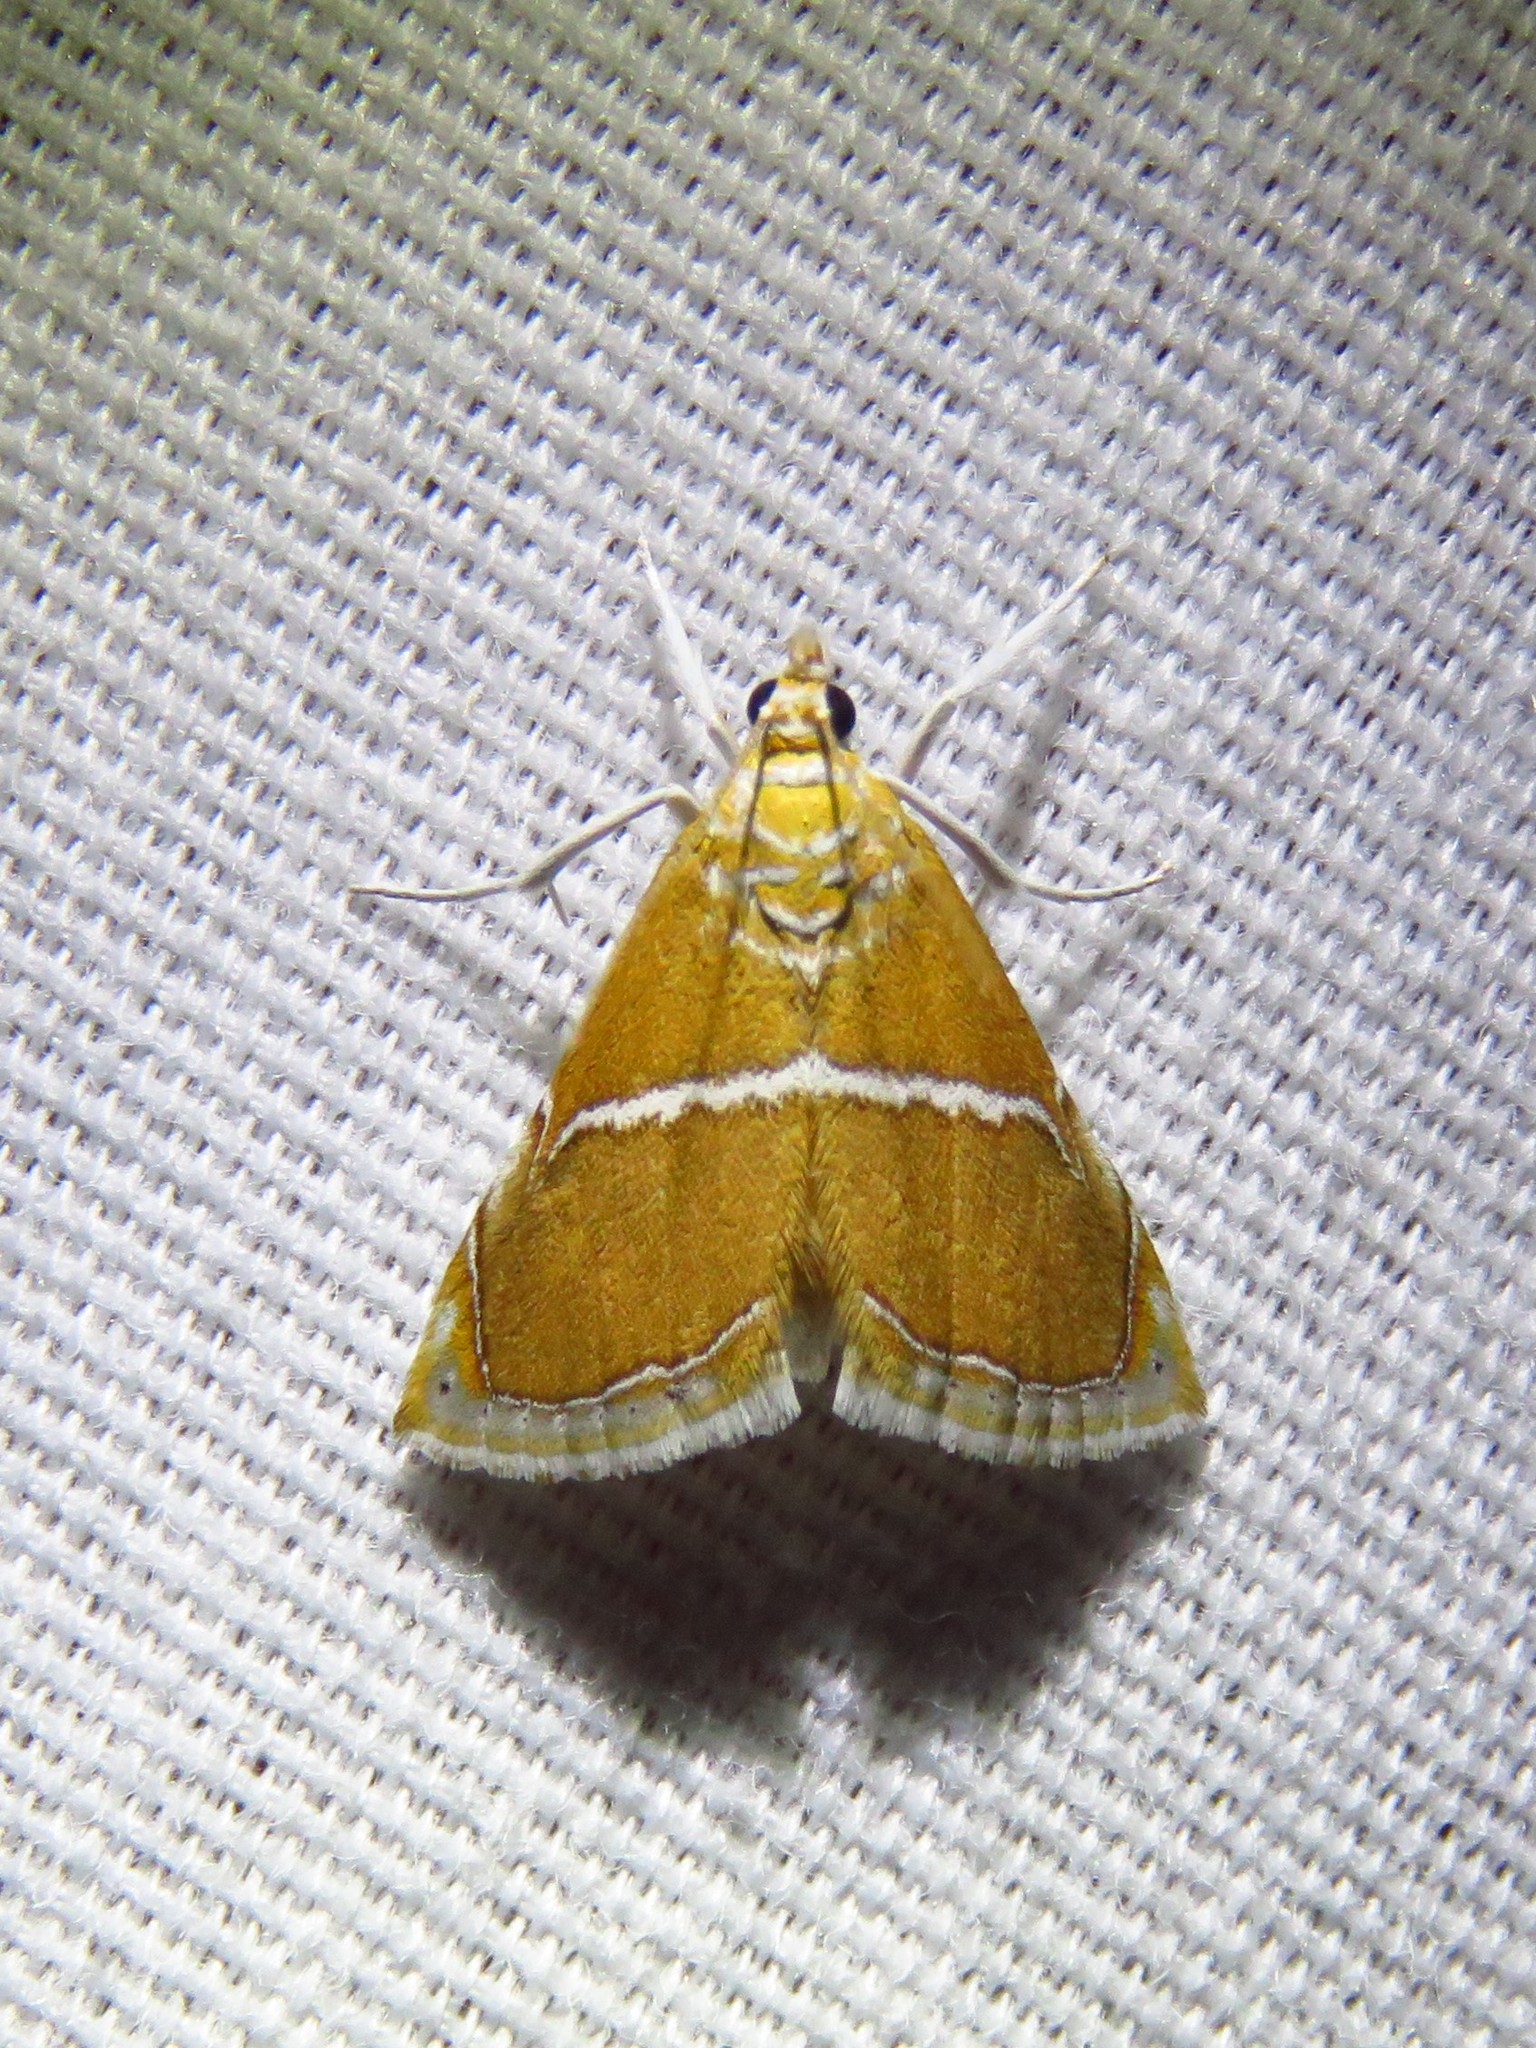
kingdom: Animalia
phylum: Arthropoda
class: Insecta
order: Lepidoptera
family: Crambidae
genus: Abegesta
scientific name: Abegesta remellalis
